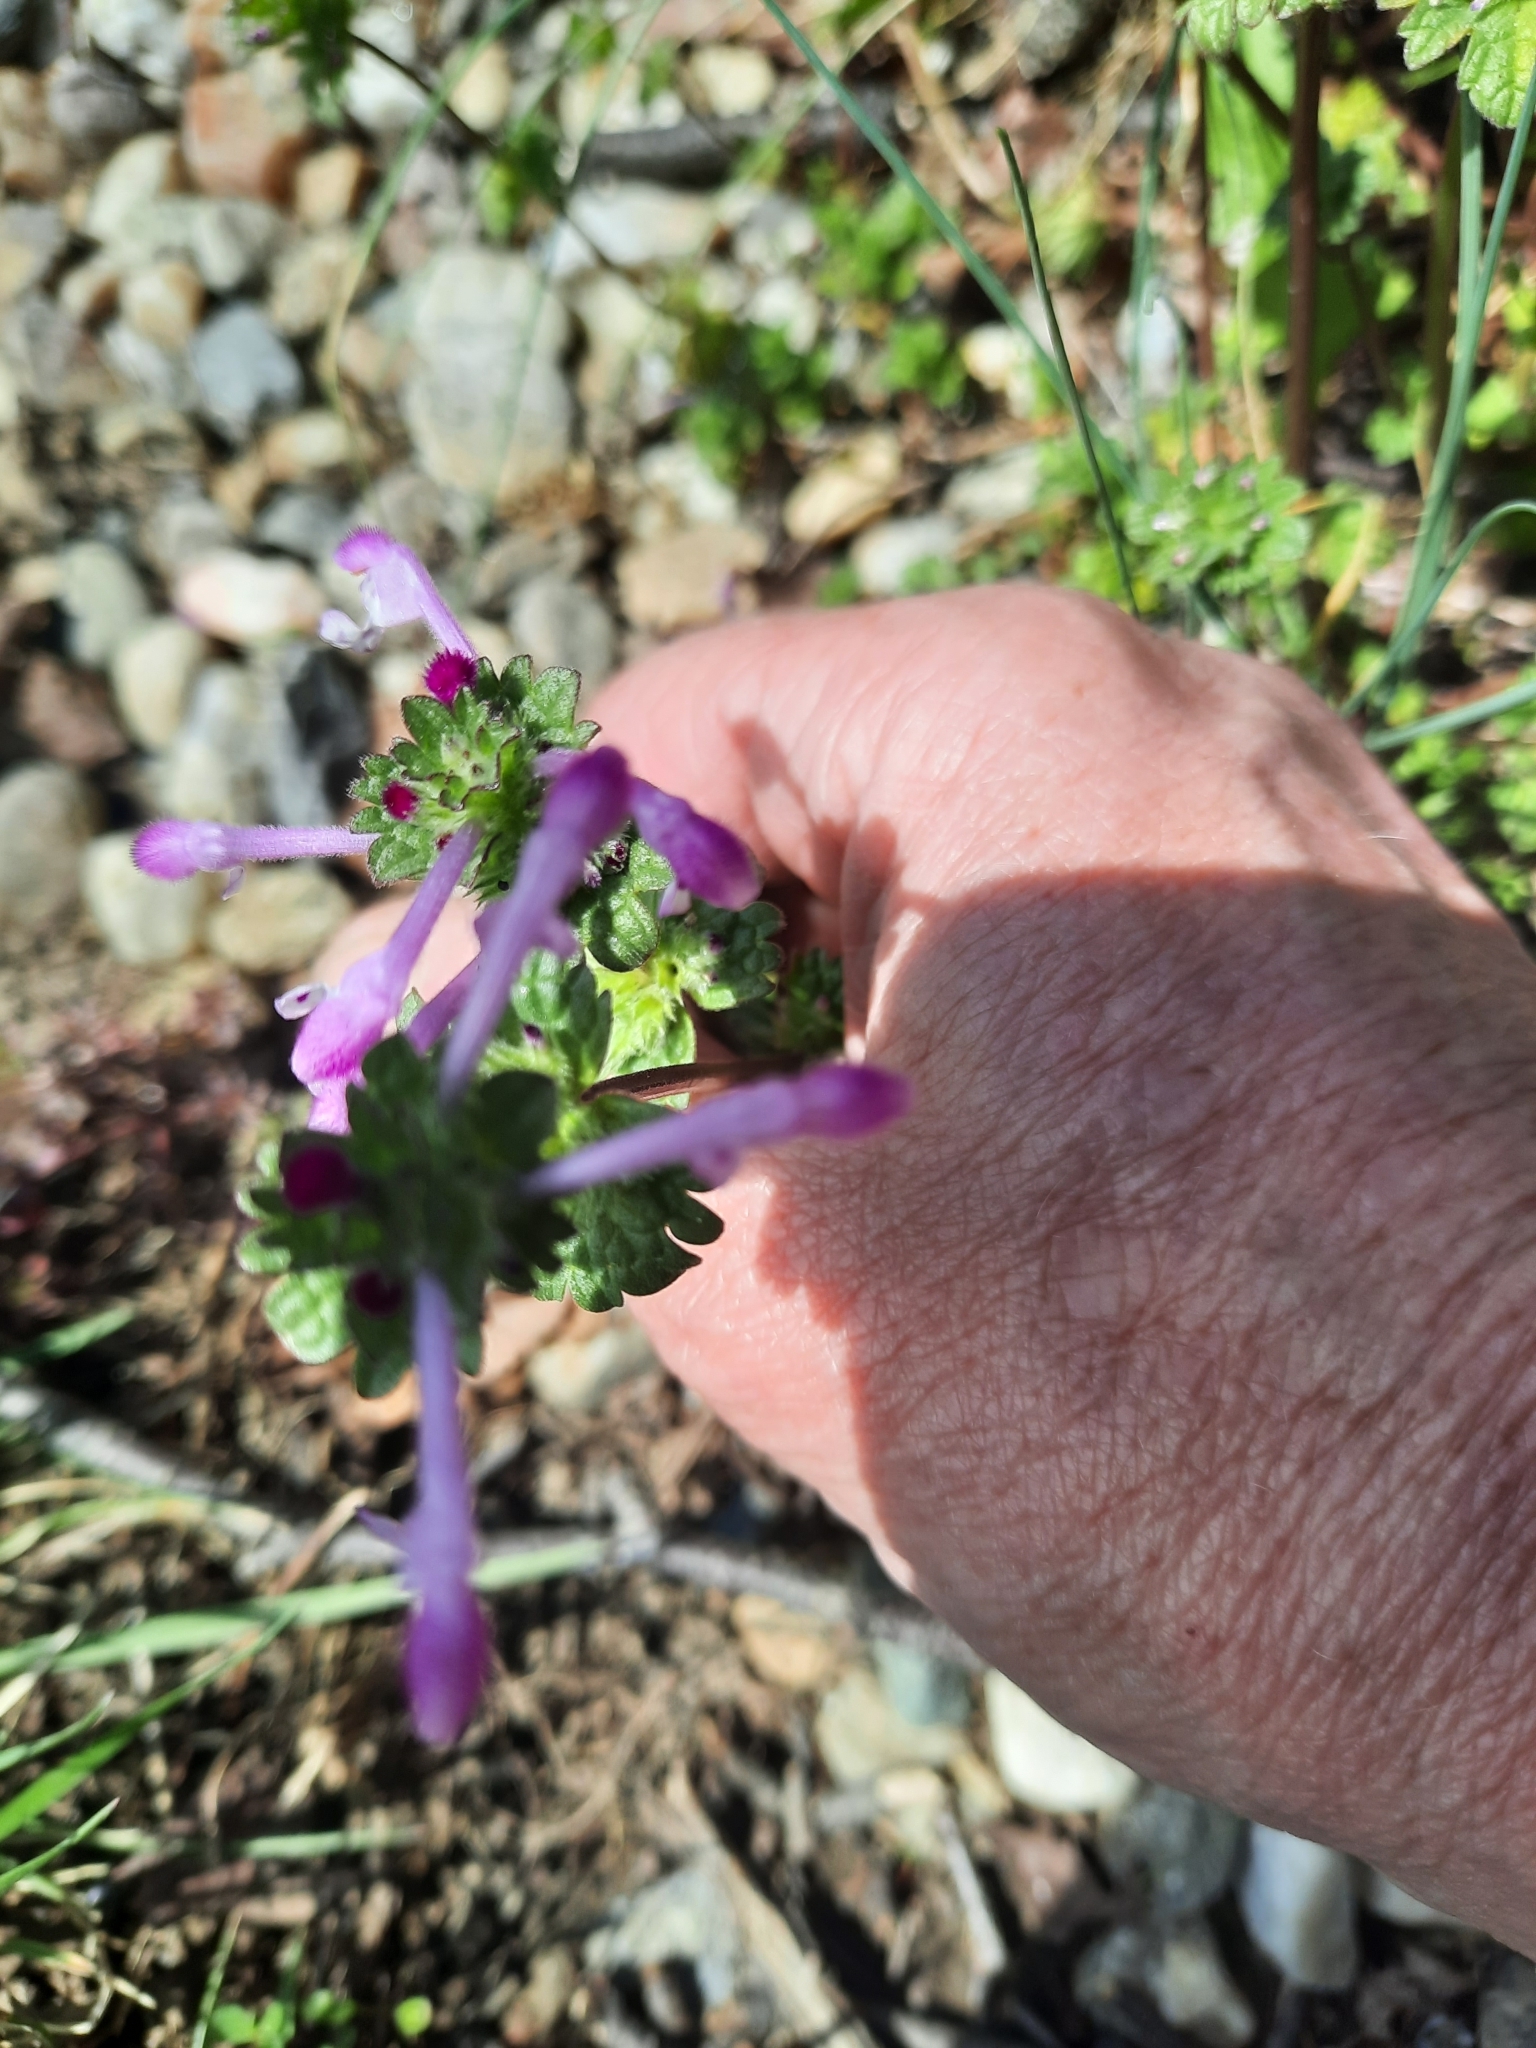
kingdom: Plantae
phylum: Tracheophyta
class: Magnoliopsida
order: Lamiales
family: Lamiaceae
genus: Lamium
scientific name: Lamium amplexicaule
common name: Henbit dead-nettle
